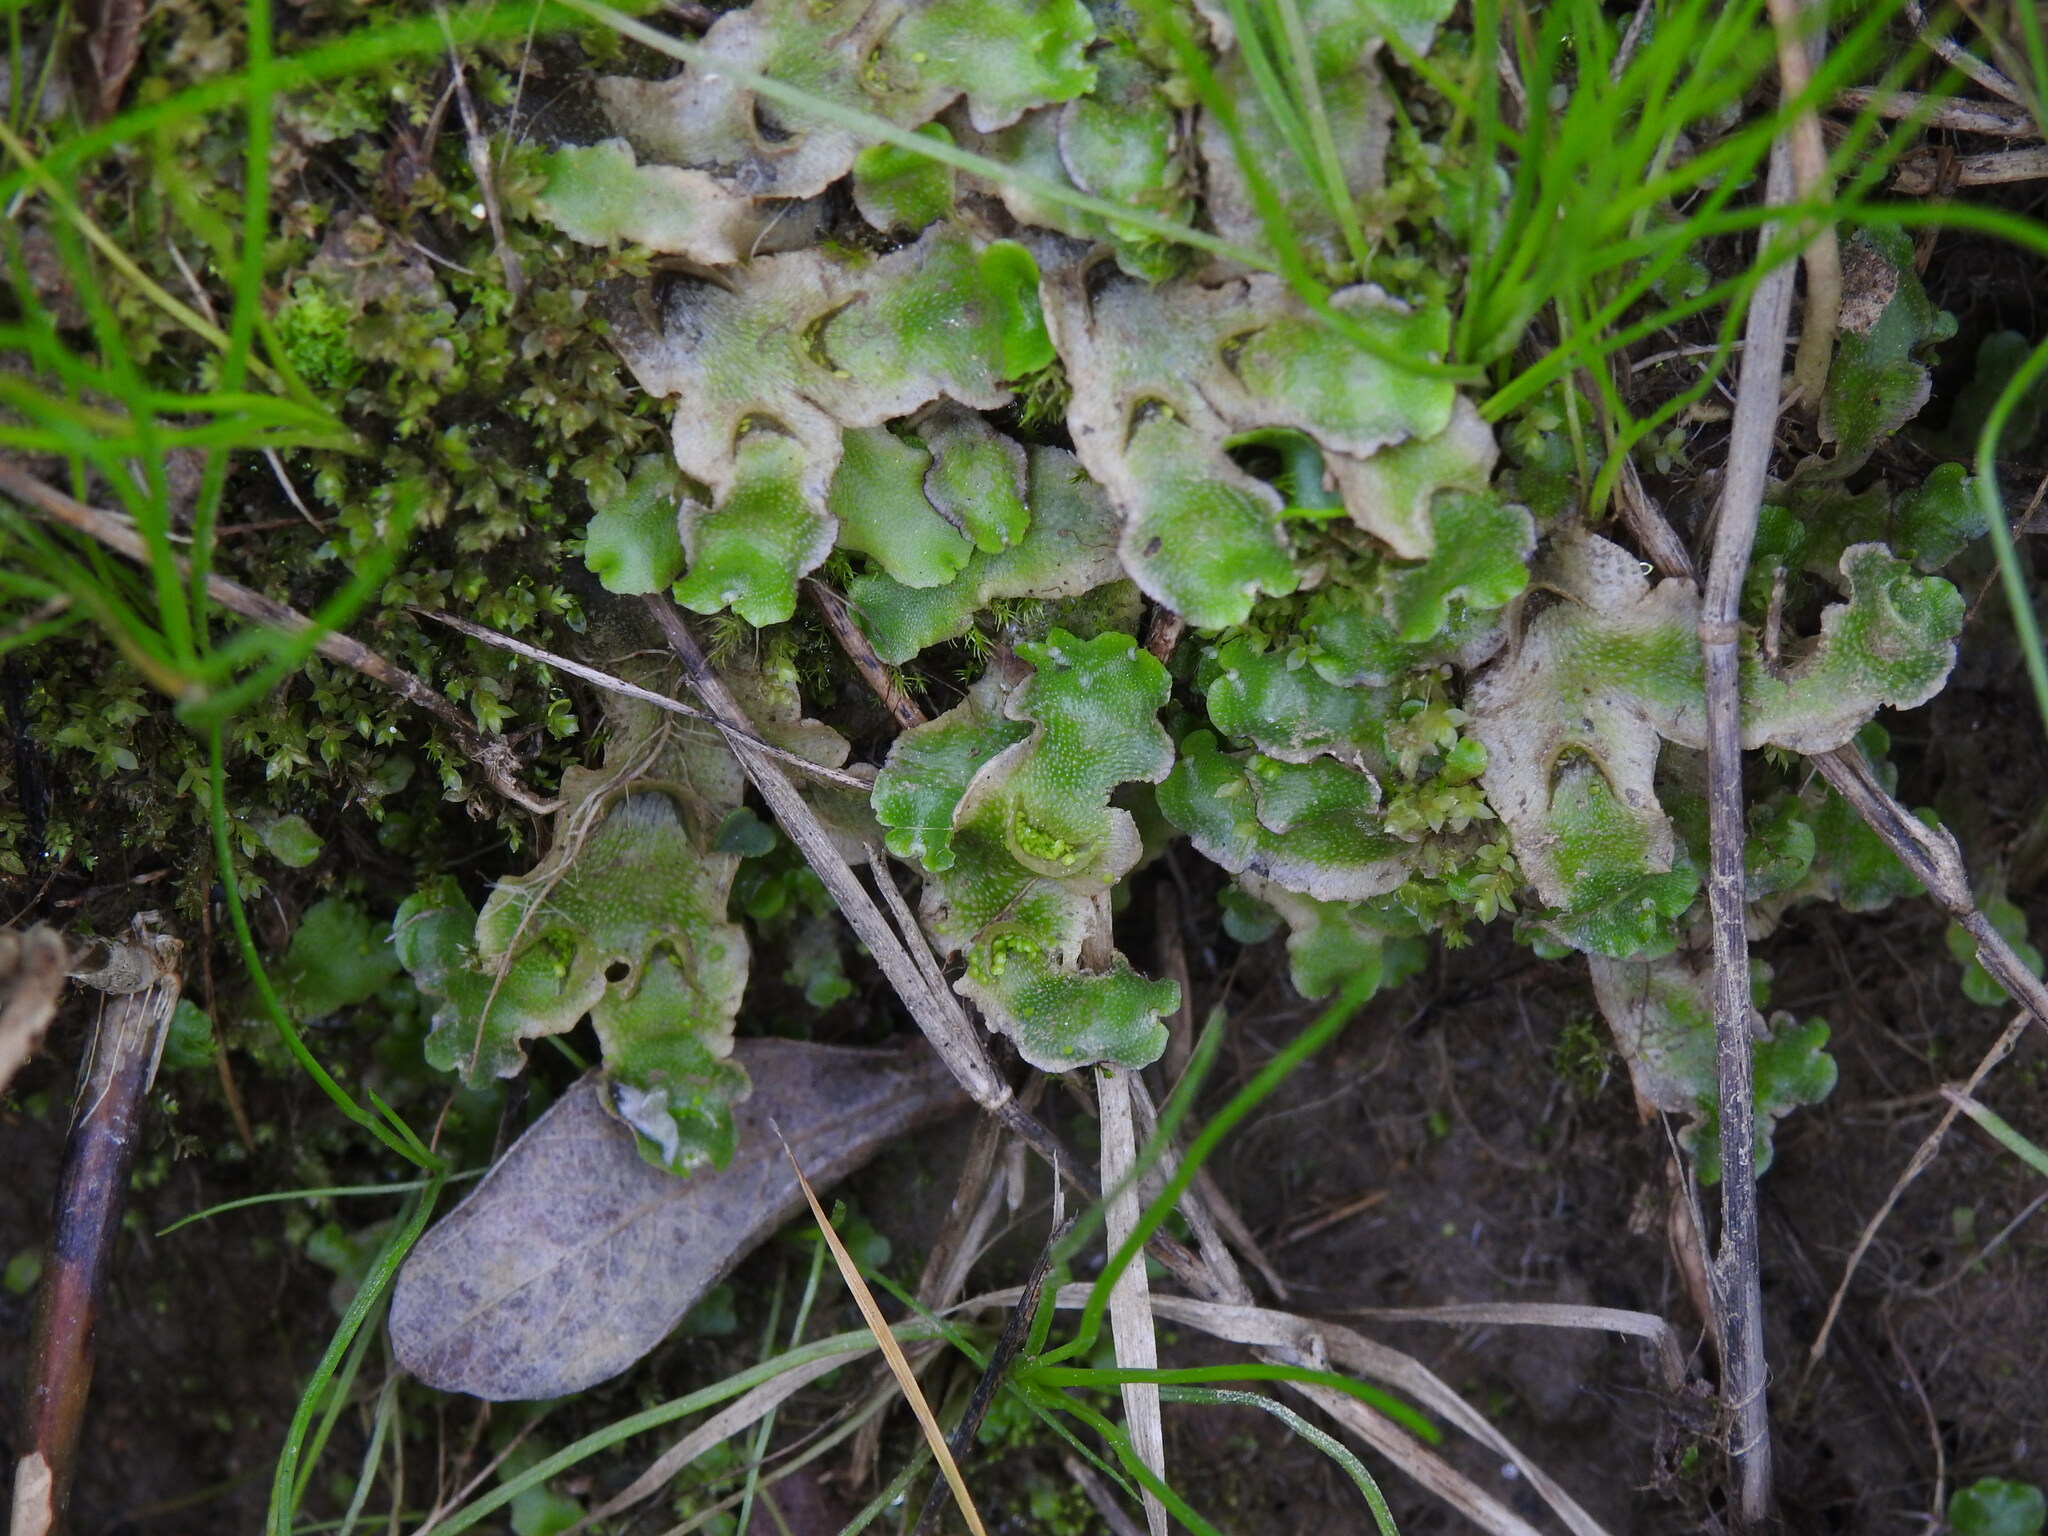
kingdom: Plantae
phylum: Marchantiophyta
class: Marchantiopsida
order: Lunulariales
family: Lunulariaceae
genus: Lunularia
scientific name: Lunularia cruciata
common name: Crescent-cup liverwort
